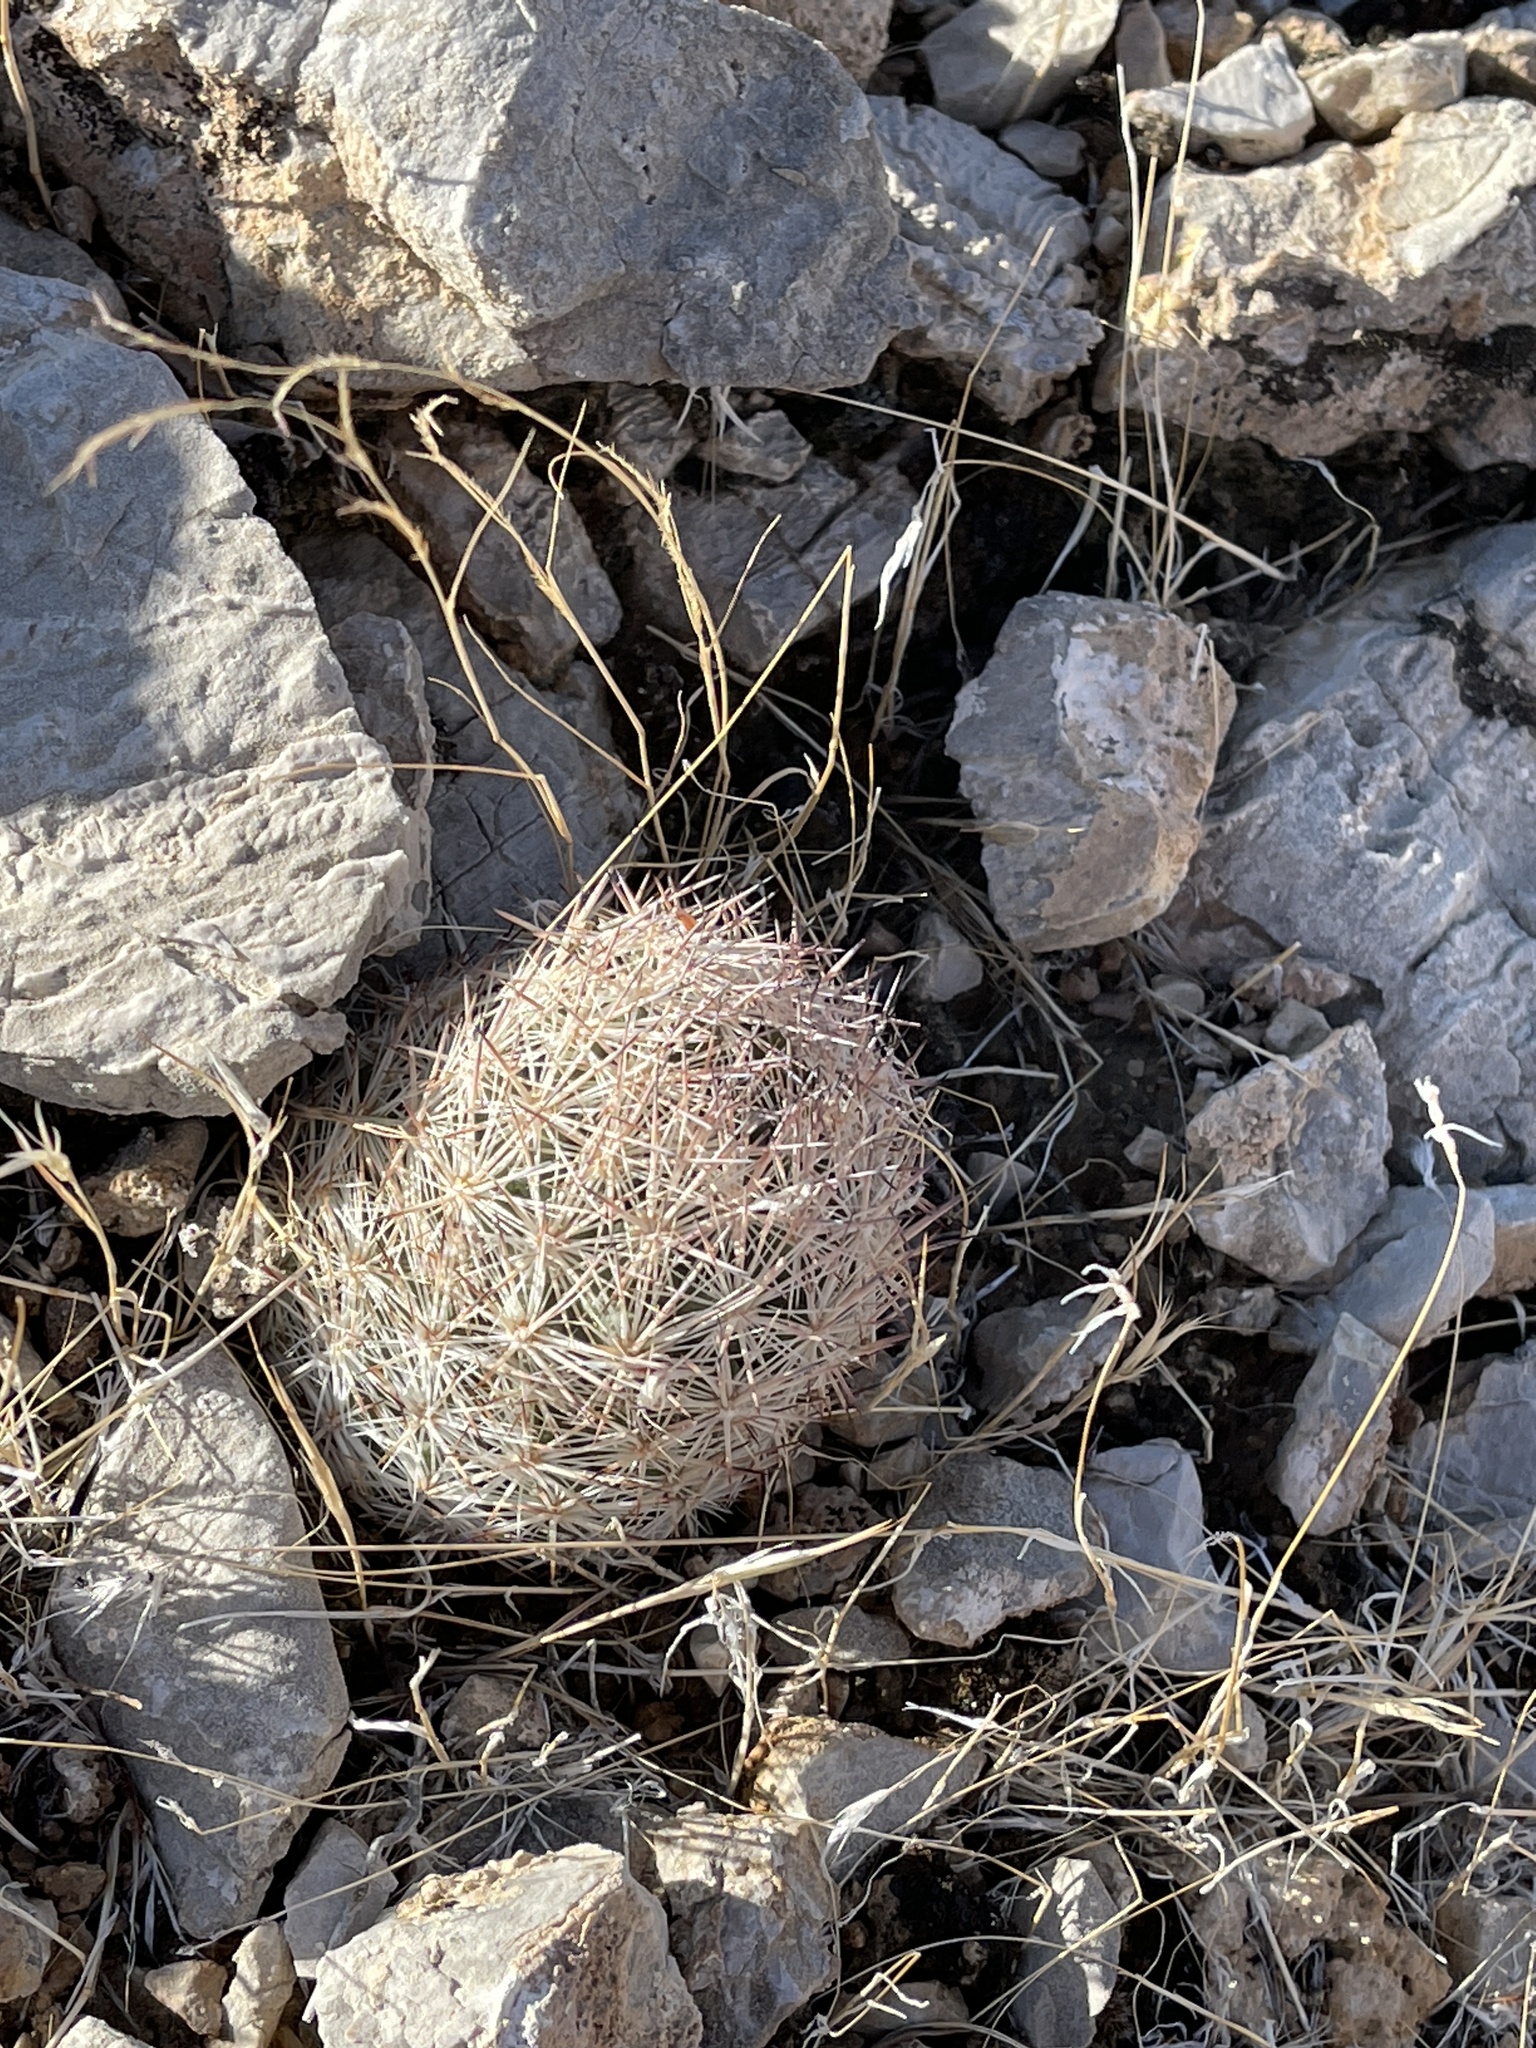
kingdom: Plantae
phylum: Tracheophyta
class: Magnoliopsida
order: Caryophyllales
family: Cactaceae
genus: Pelecyphora
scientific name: Pelecyphora vivipara
